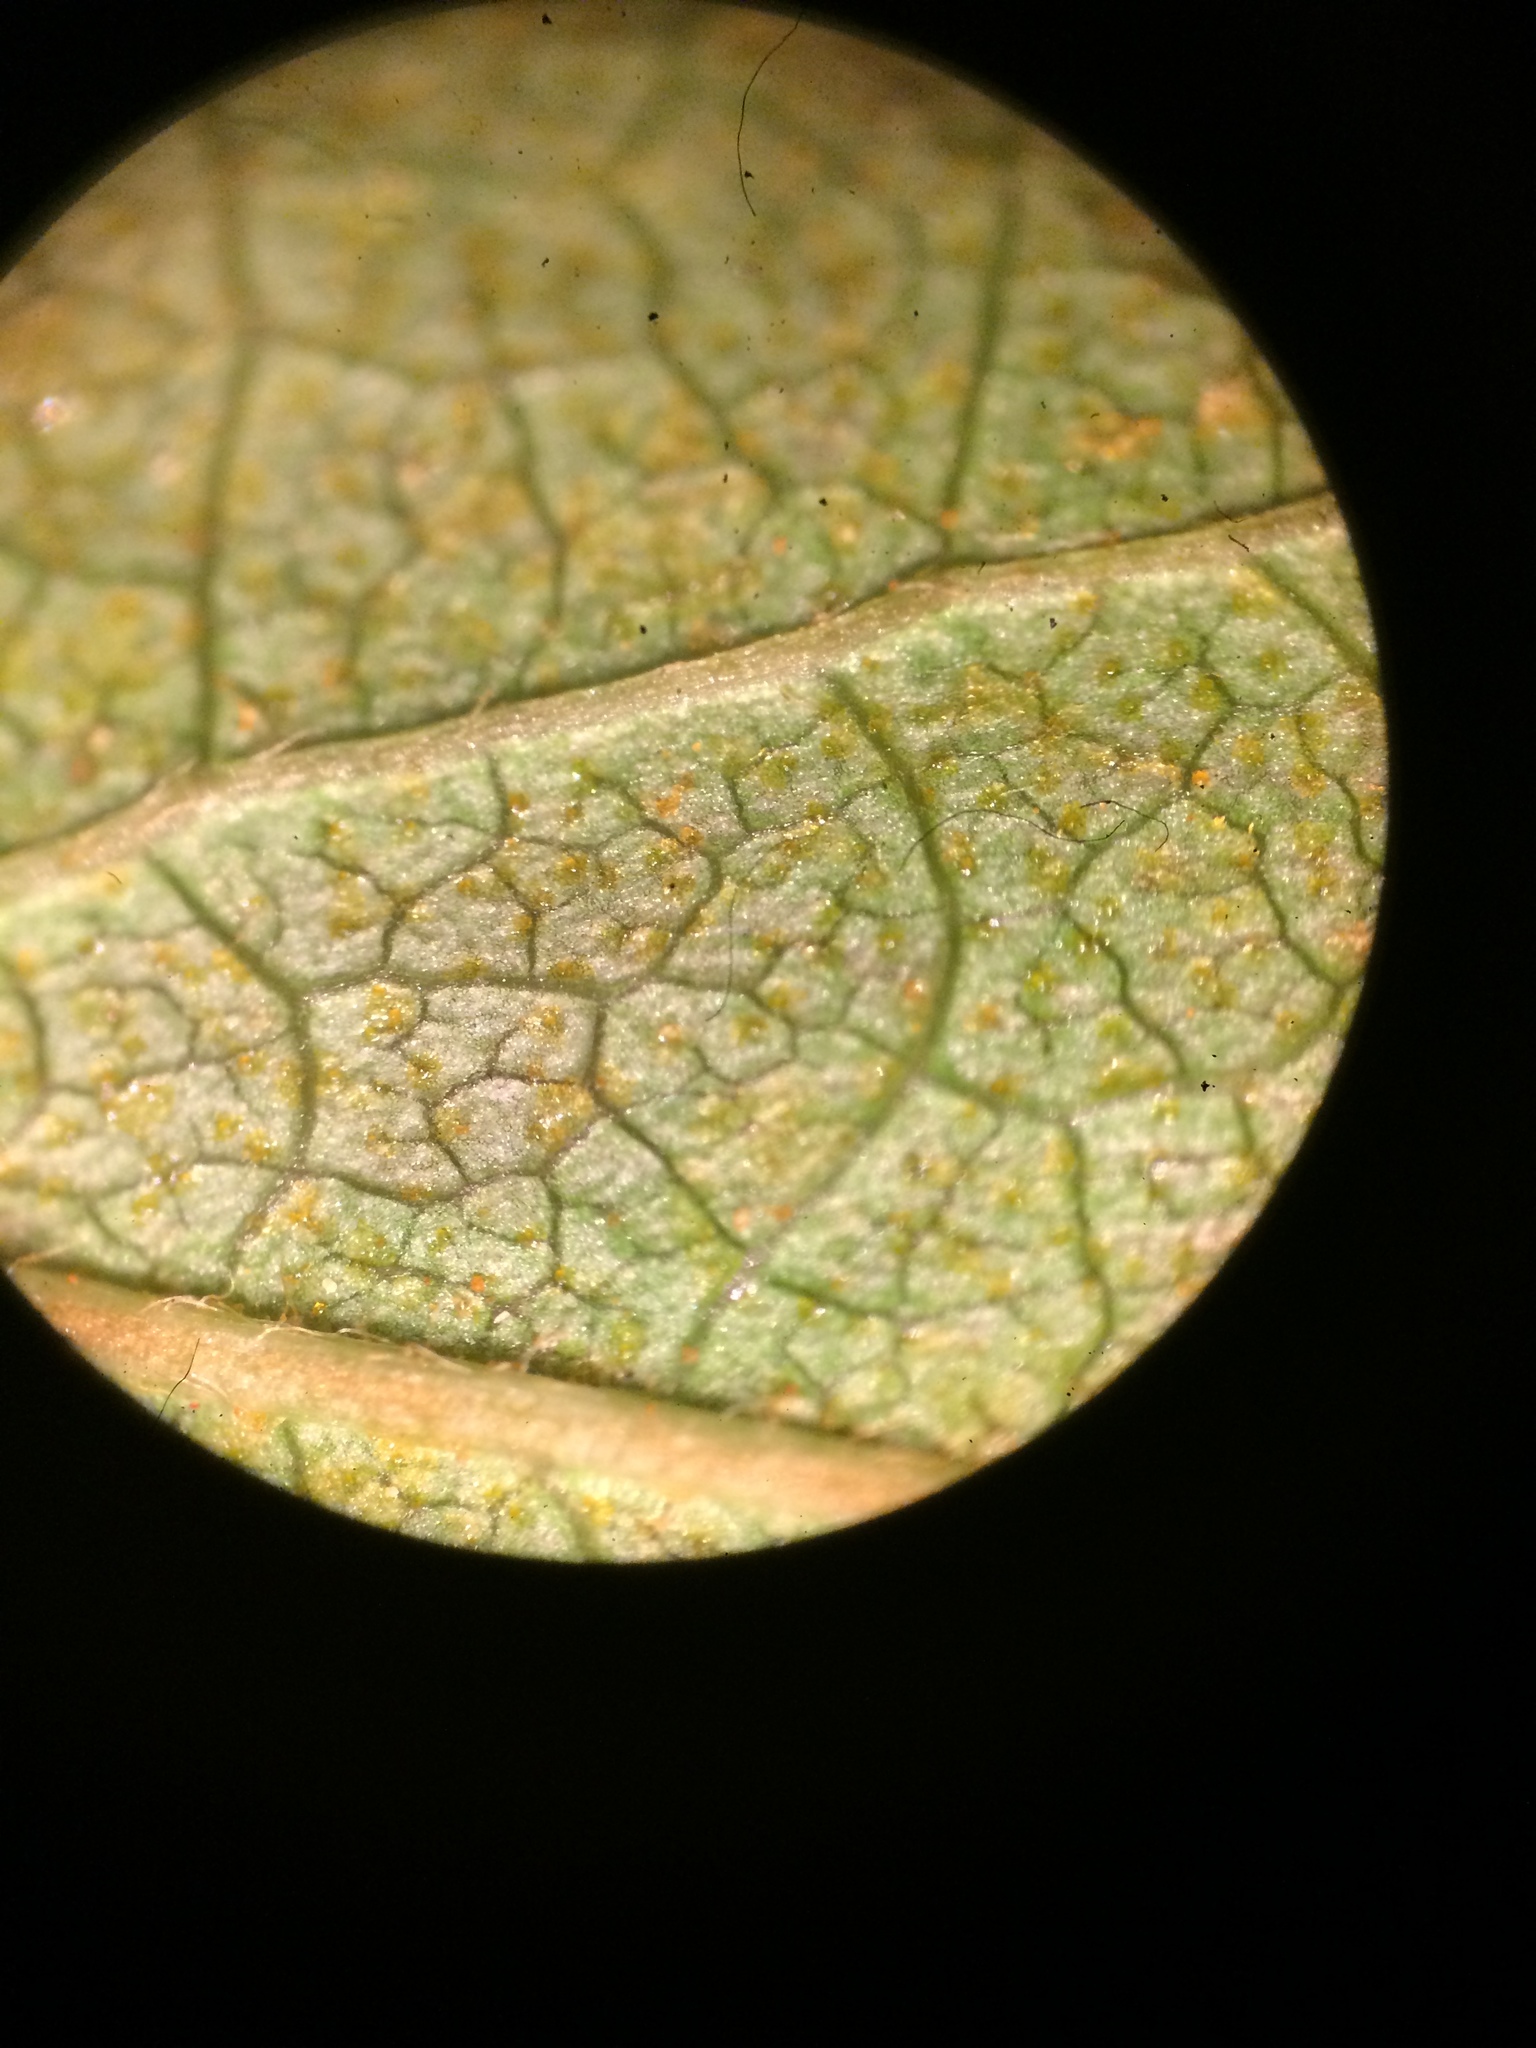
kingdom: Plantae
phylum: Tracheophyta
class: Magnoliopsida
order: Ericales
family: Ericaceae
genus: Gaylussacia
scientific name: Gaylussacia baccata
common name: Black huckleberry
